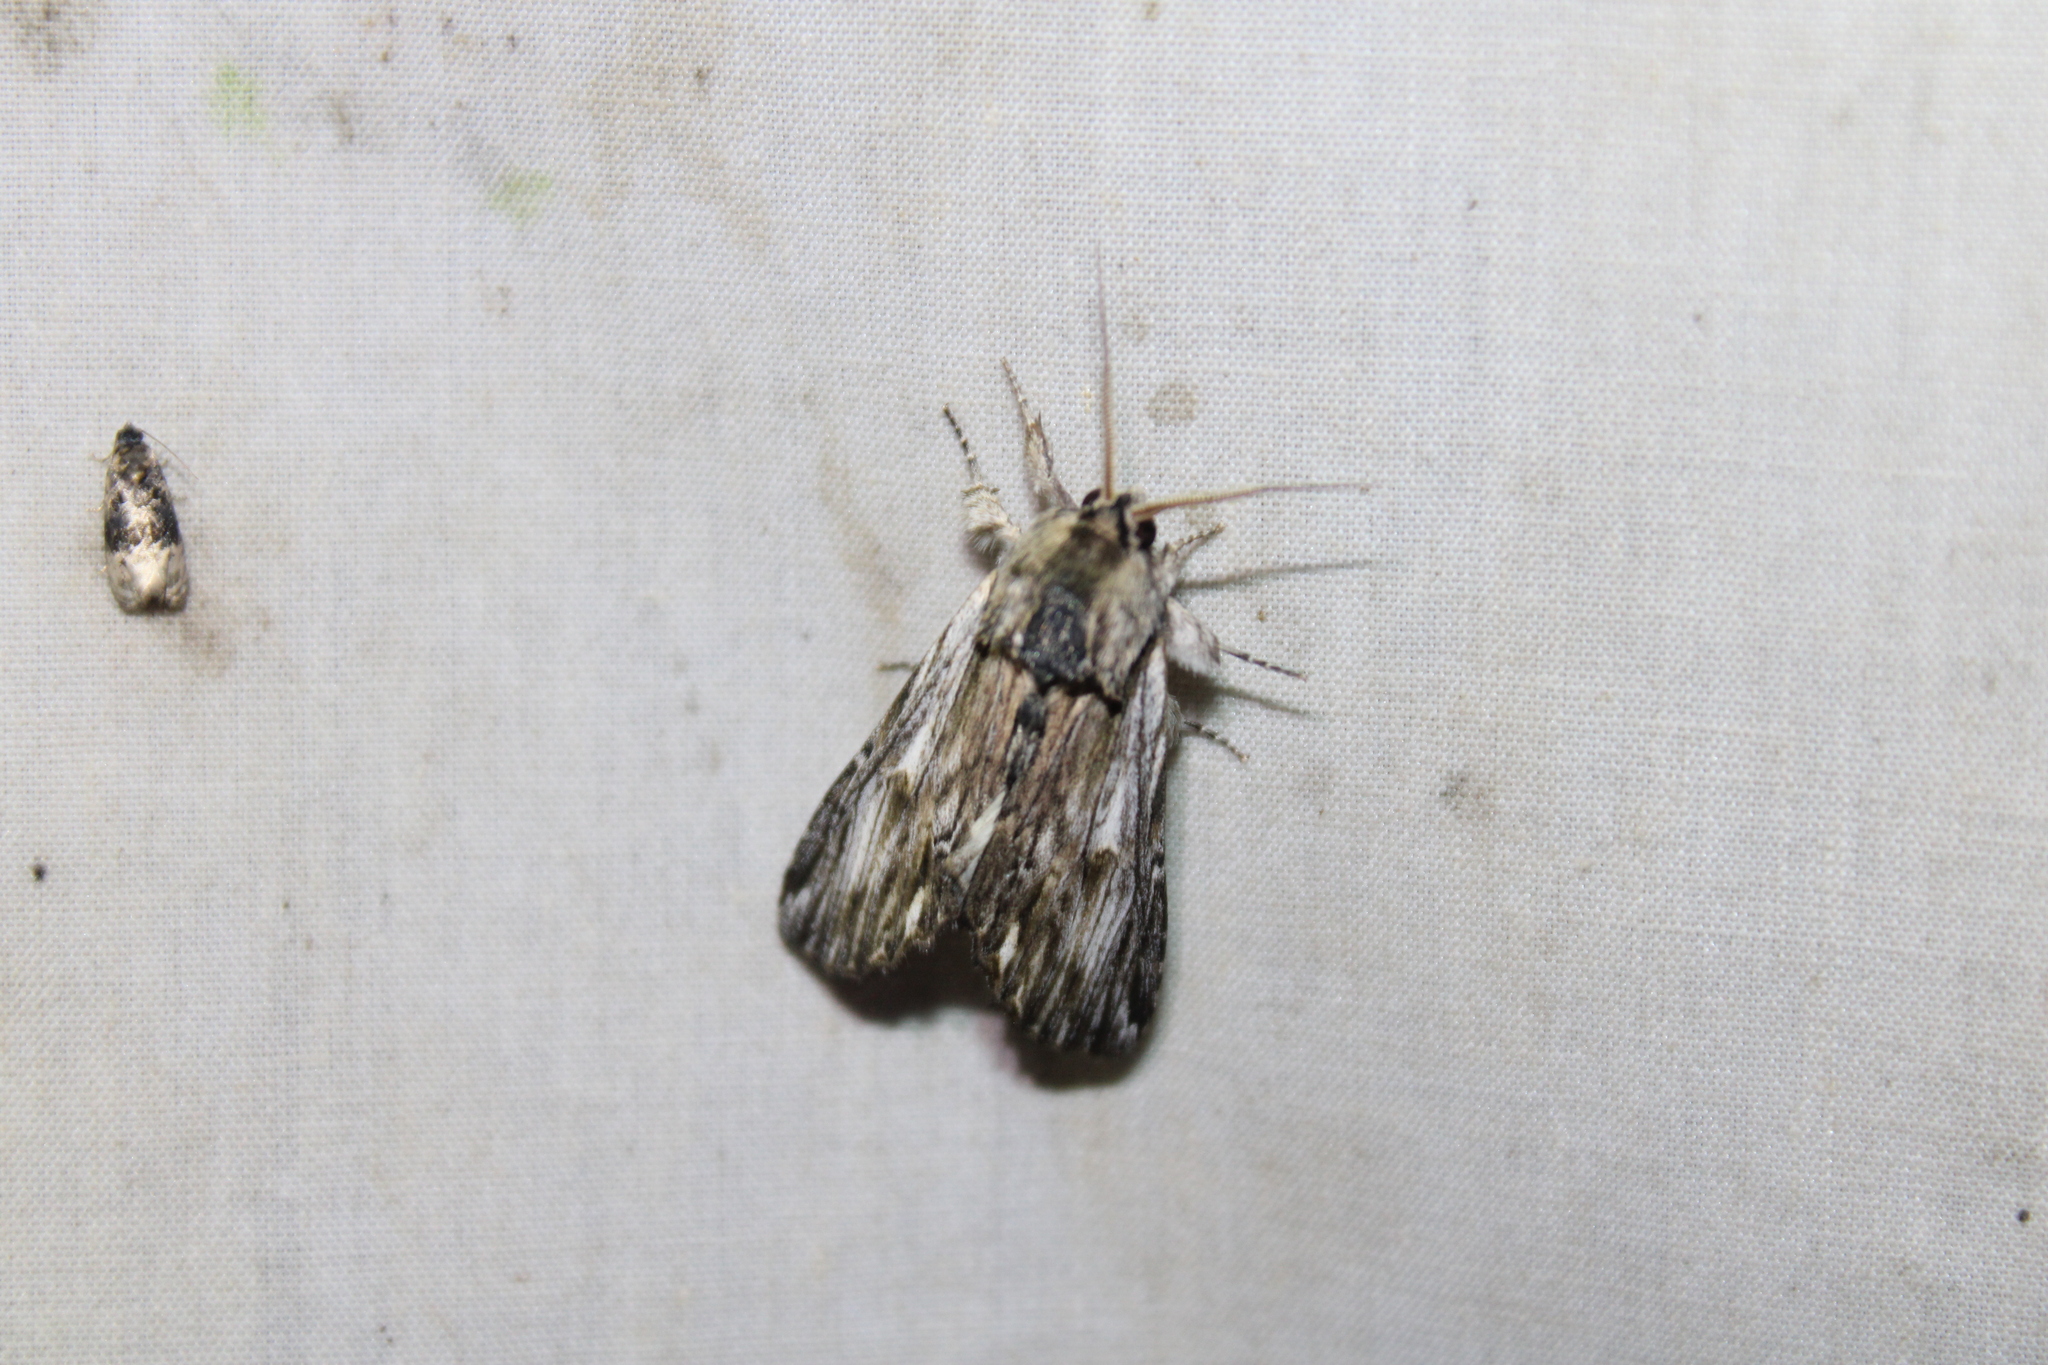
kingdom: Animalia
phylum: Arthropoda
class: Insecta
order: Lepidoptera
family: Notodontidae
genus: Oligocentria
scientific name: Oligocentria Ianassa lignicolor
